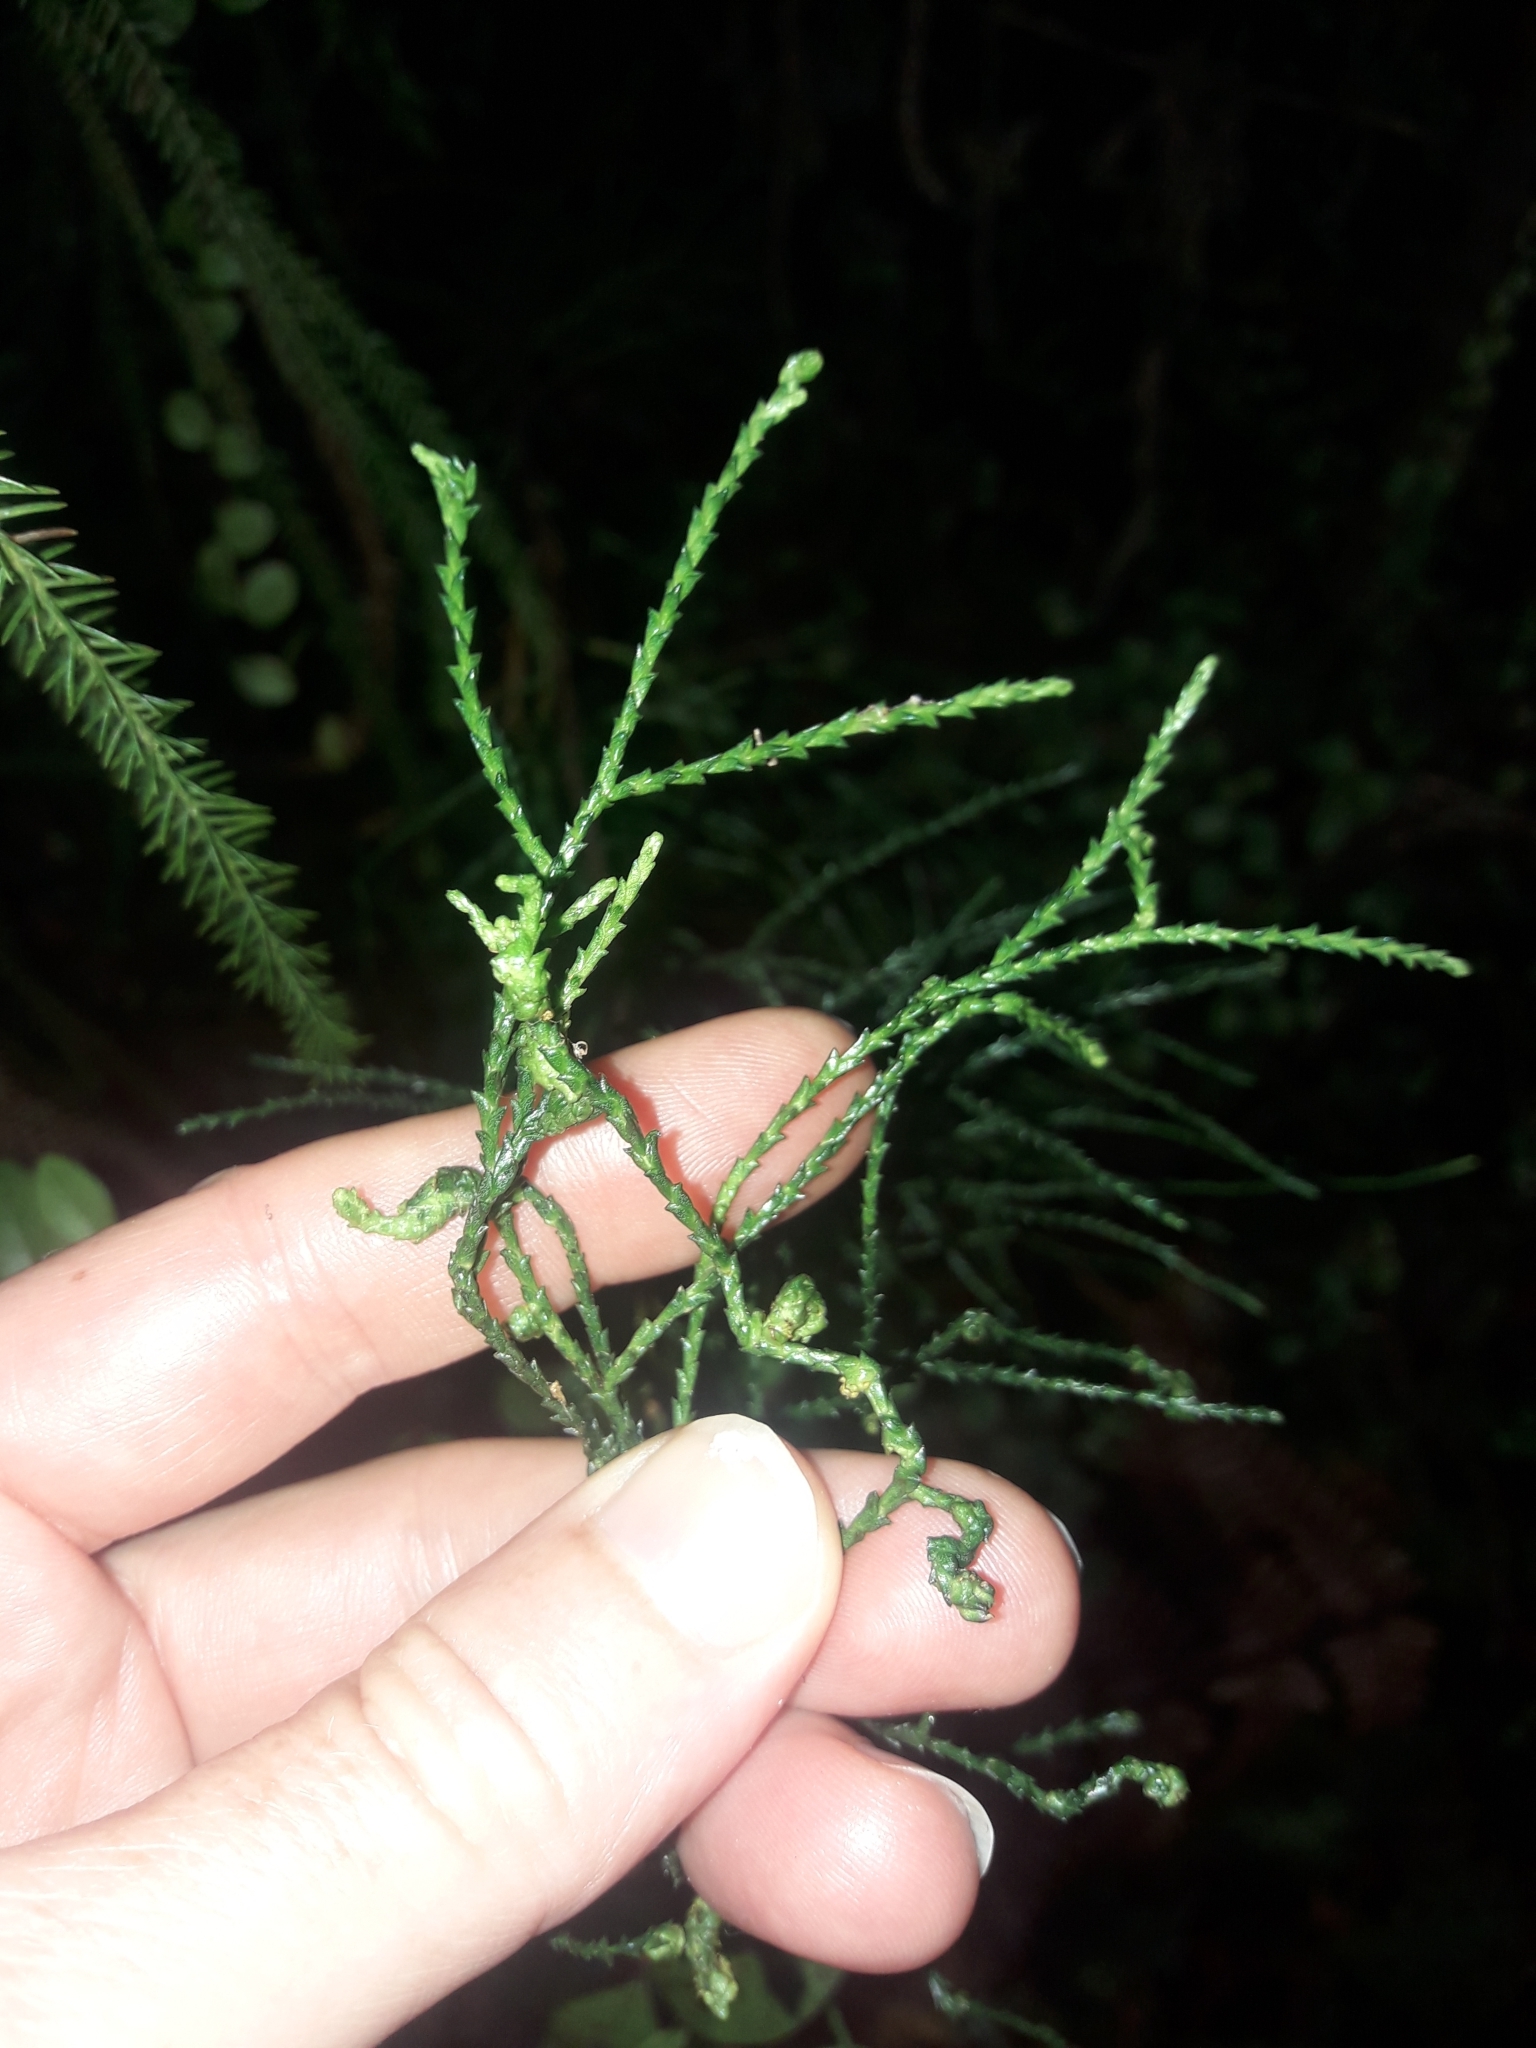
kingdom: Plantae
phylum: Tracheophyta
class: Pinopsida
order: Pinales
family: Podocarpaceae
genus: Manoao
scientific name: Manoao colensoi
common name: Silver pine
